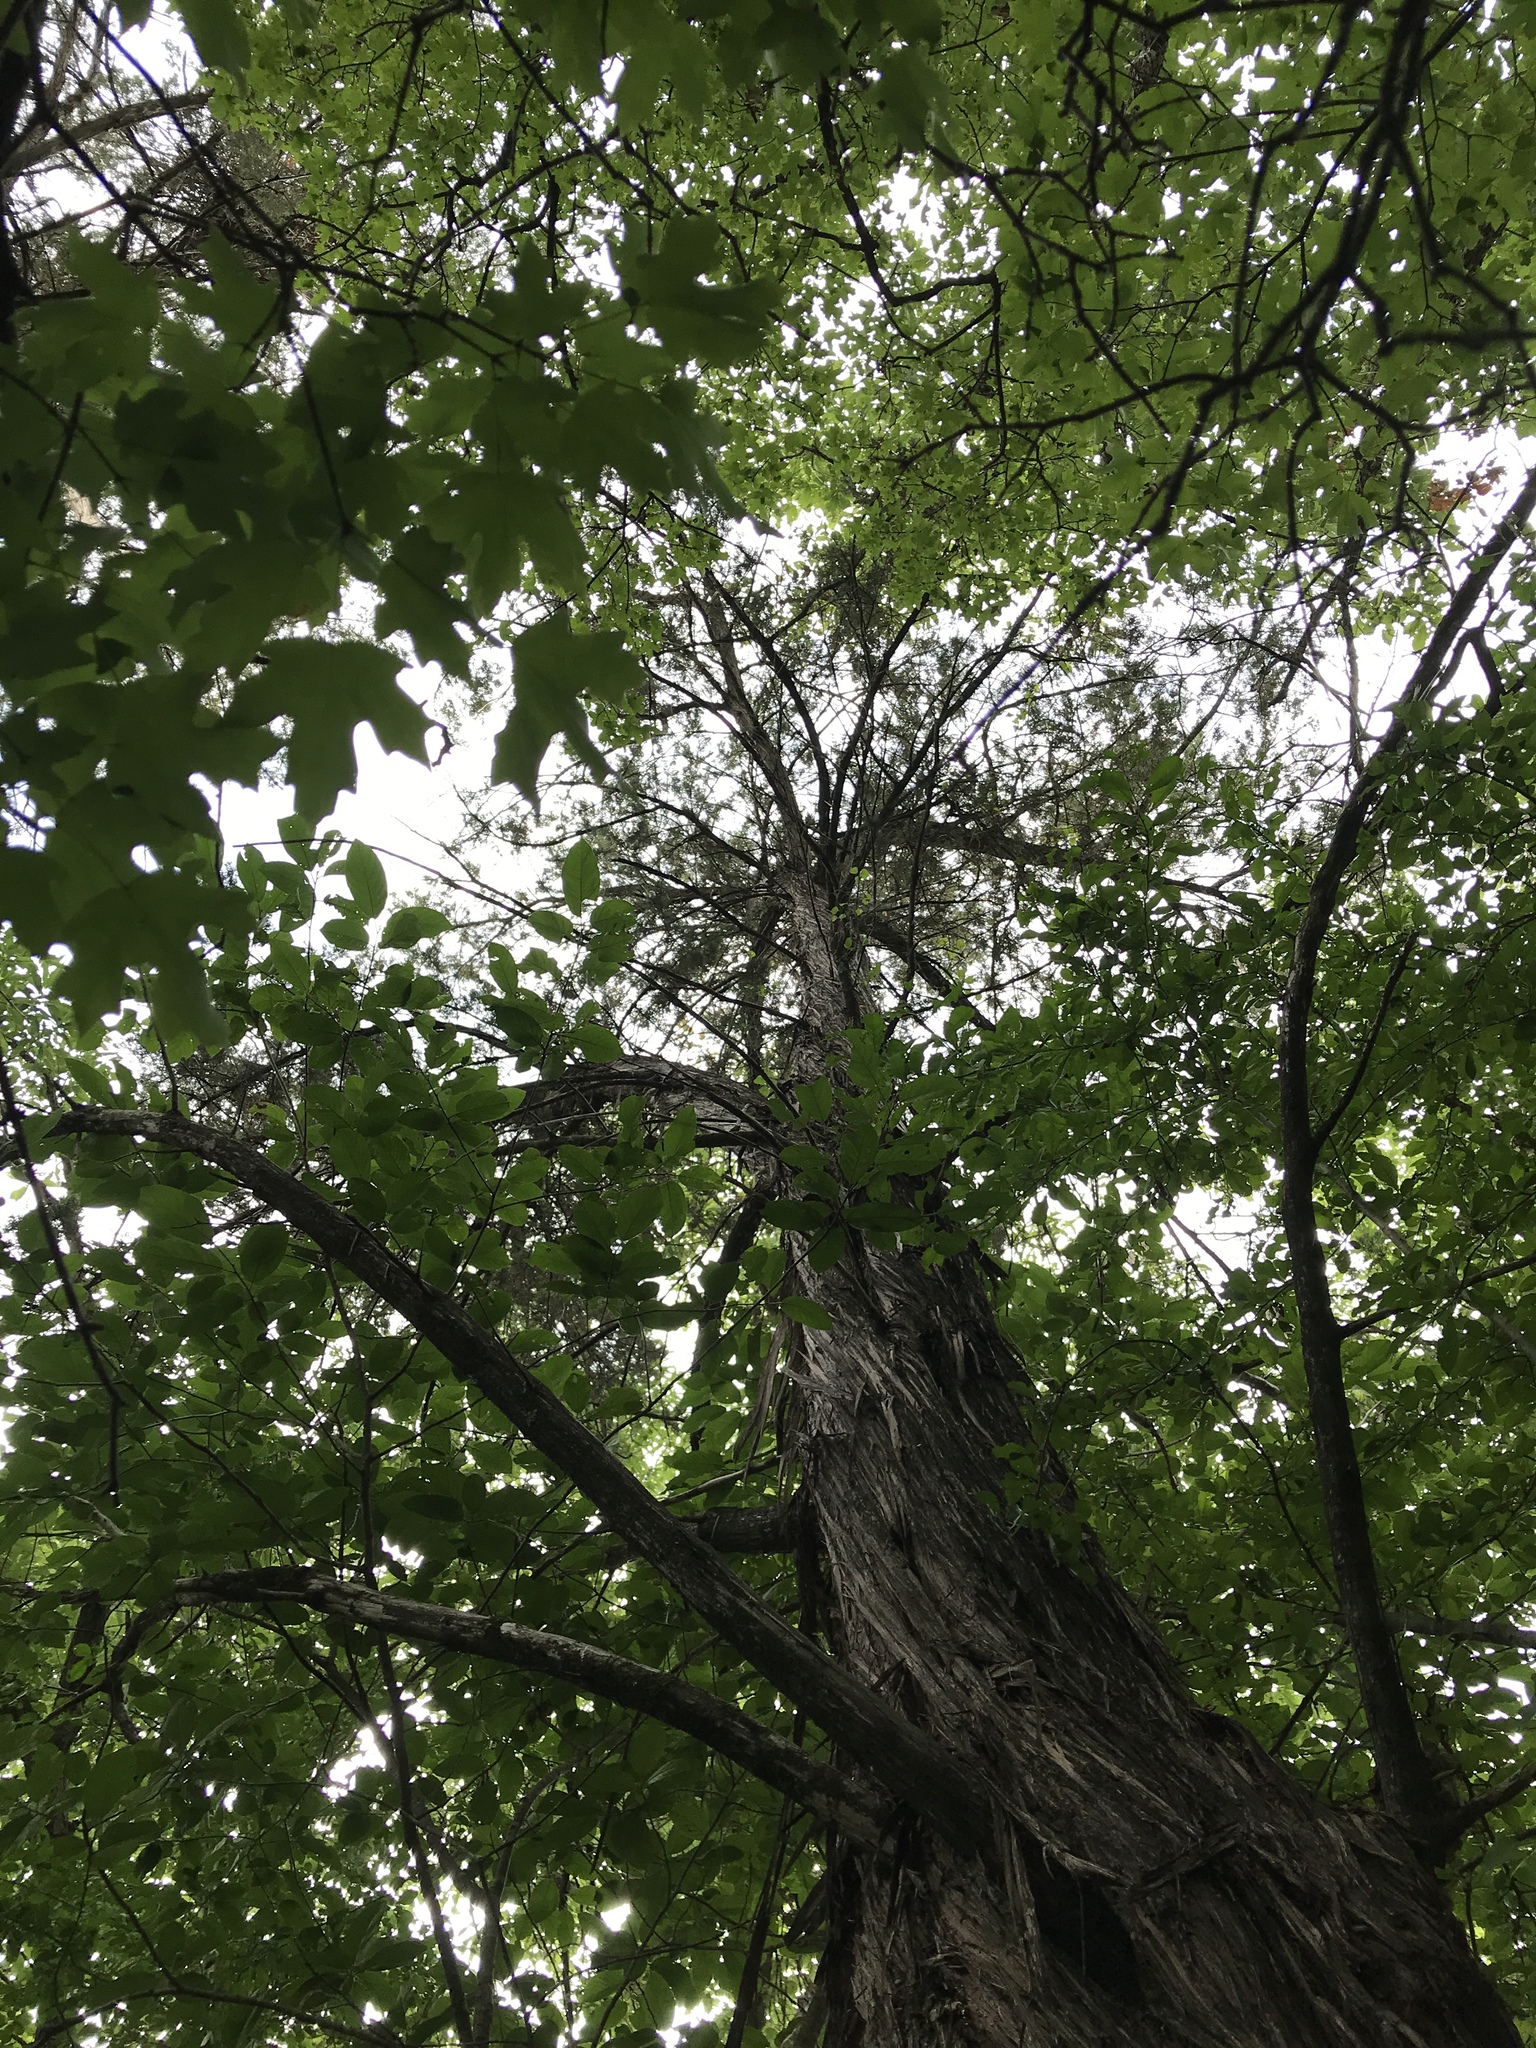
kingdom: Plantae
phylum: Tracheophyta
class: Pinopsida
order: Pinales
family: Cupressaceae
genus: Juniperus
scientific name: Juniperus ashei
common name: Mexican juniper
